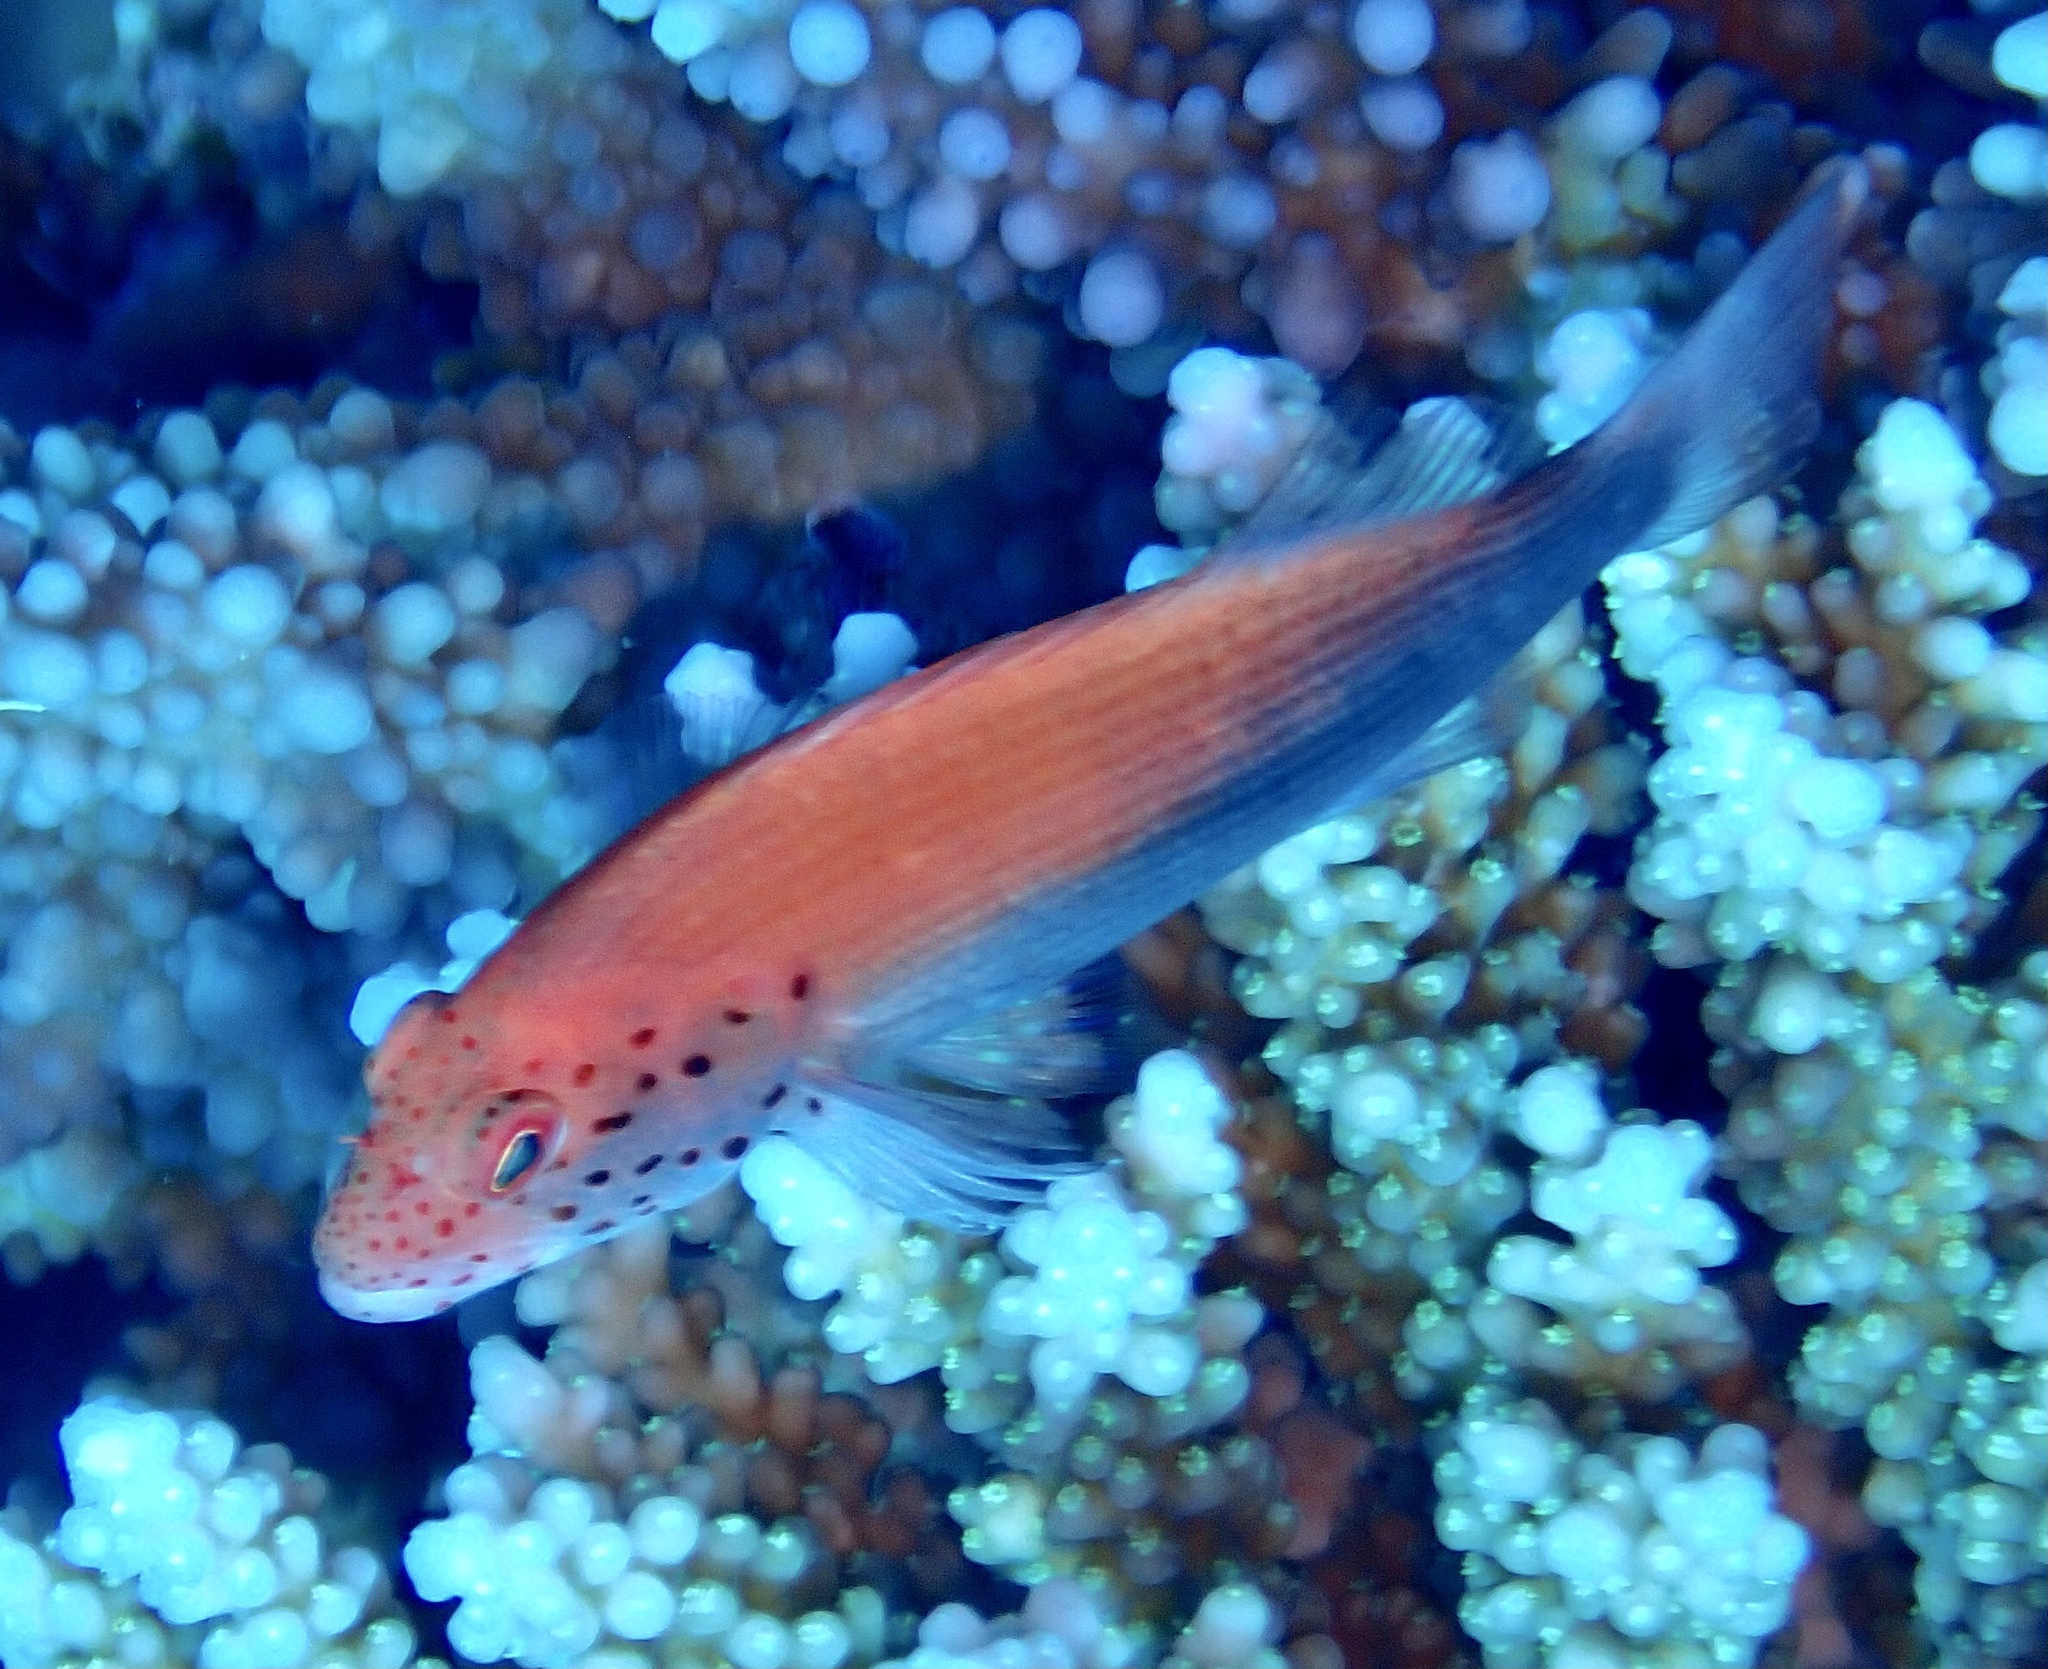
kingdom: Animalia
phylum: Chordata
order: Perciformes
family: Cirrhitidae
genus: Paracirrhites
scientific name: Paracirrhites forsteri
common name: Freckled hawkfish
